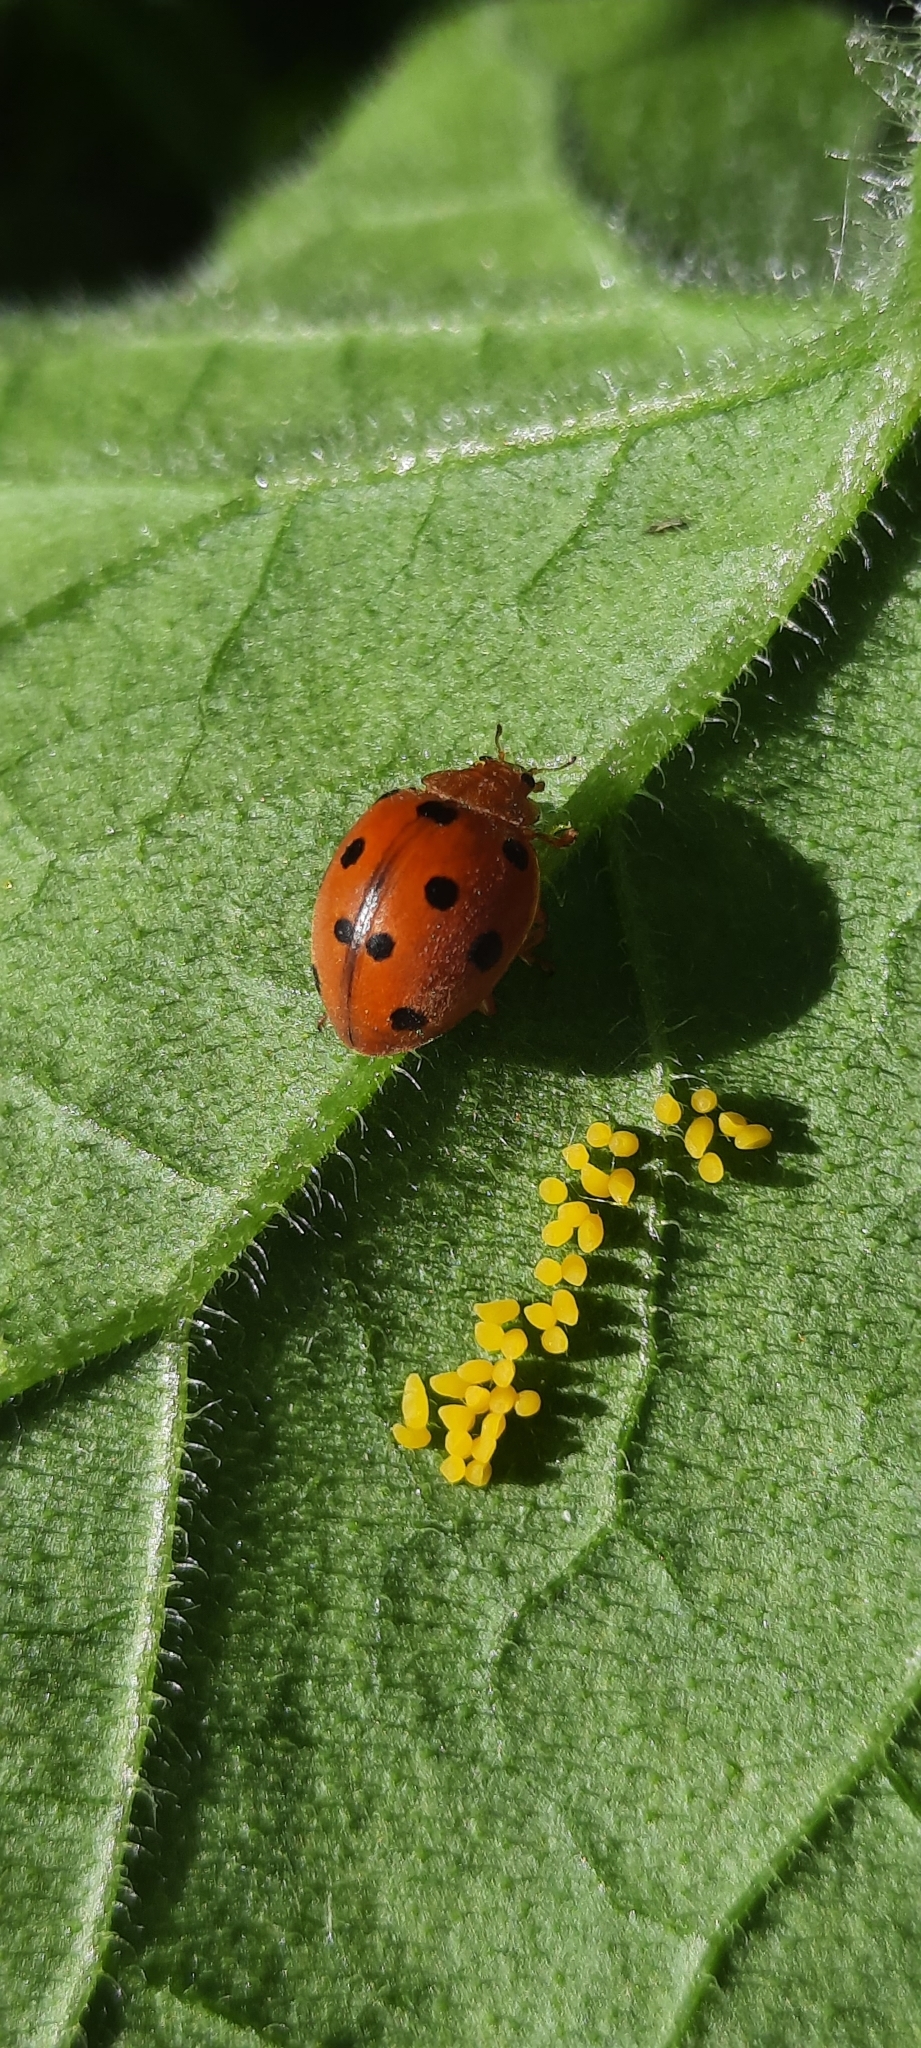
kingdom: Animalia
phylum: Arthropoda
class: Insecta
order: Coleoptera
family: Coccinellidae
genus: Henosepilachna
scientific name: Henosepilachna argus
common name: Bryony ladybird
